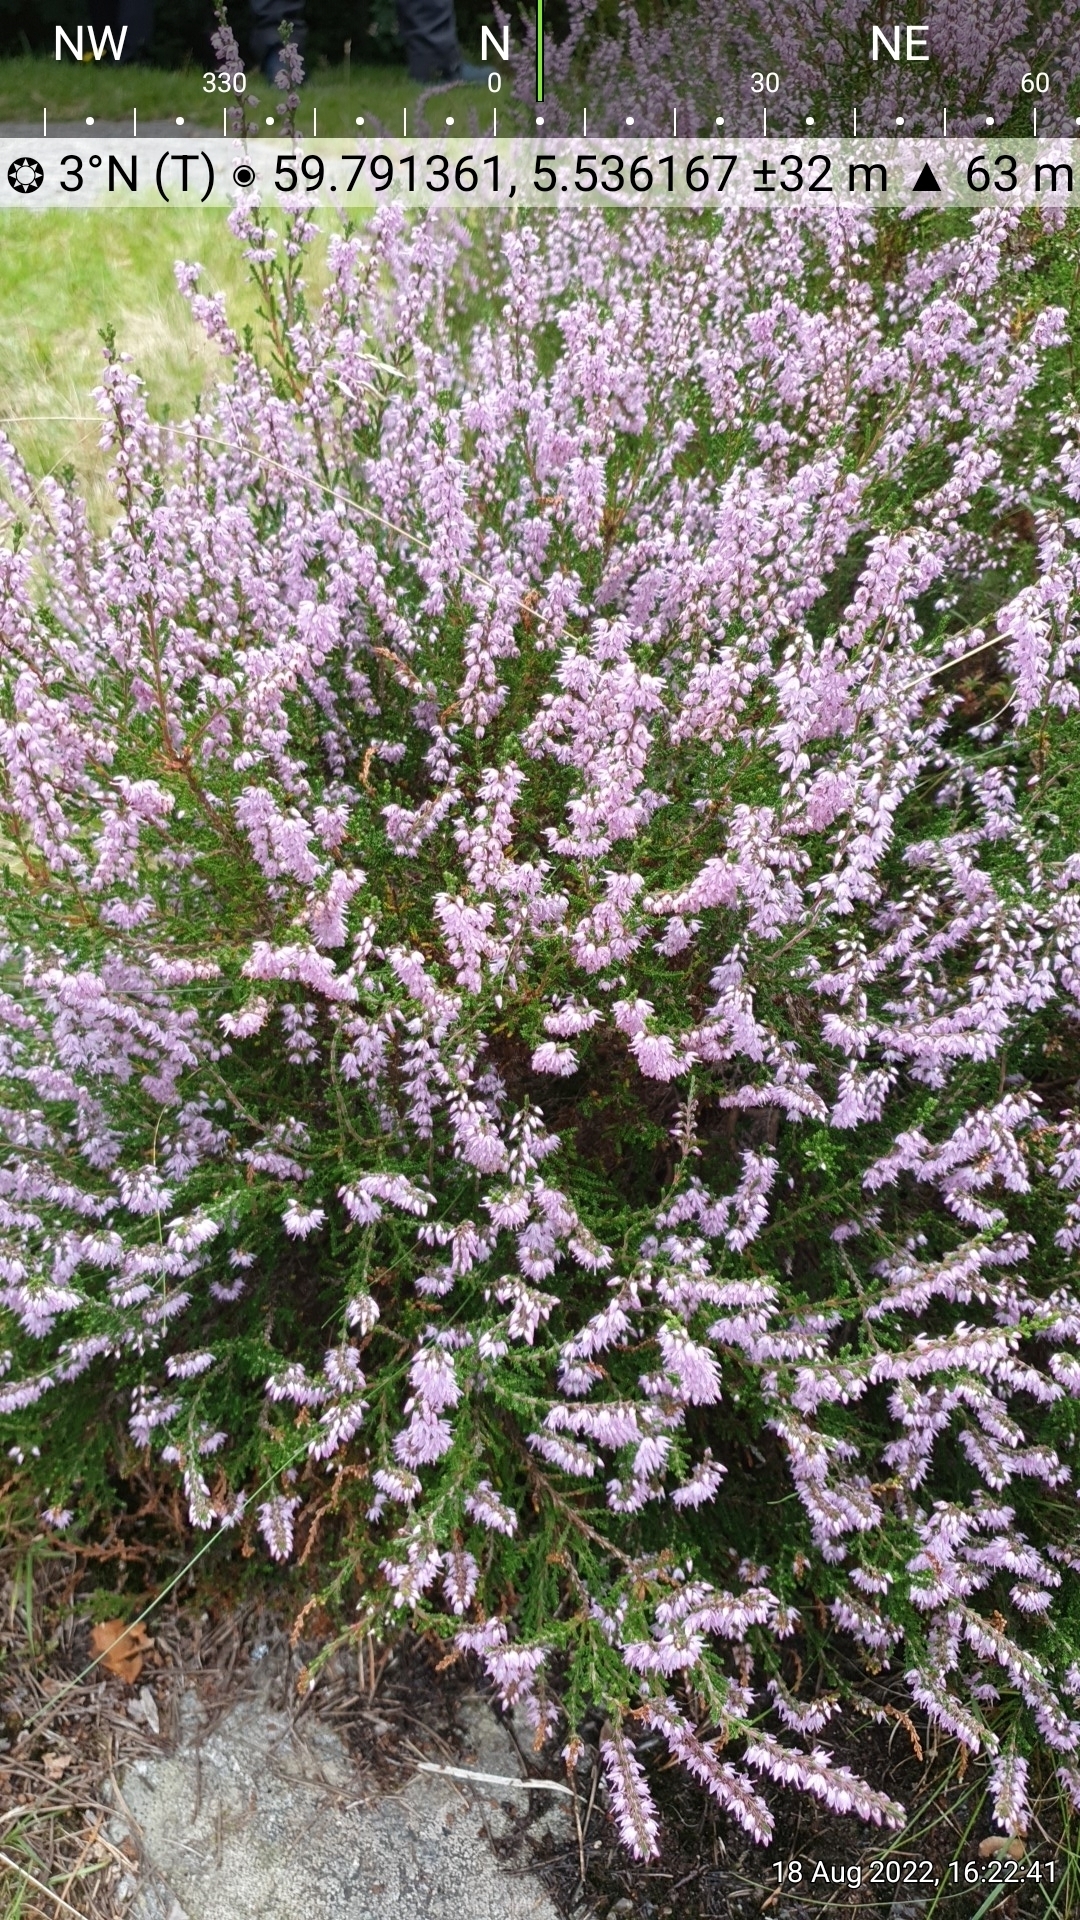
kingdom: Plantae
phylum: Tracheophyta
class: Magnoliopsida
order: Ericales
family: Ericaceae
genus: Calluna
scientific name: Calluna vulgaris
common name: Heather
